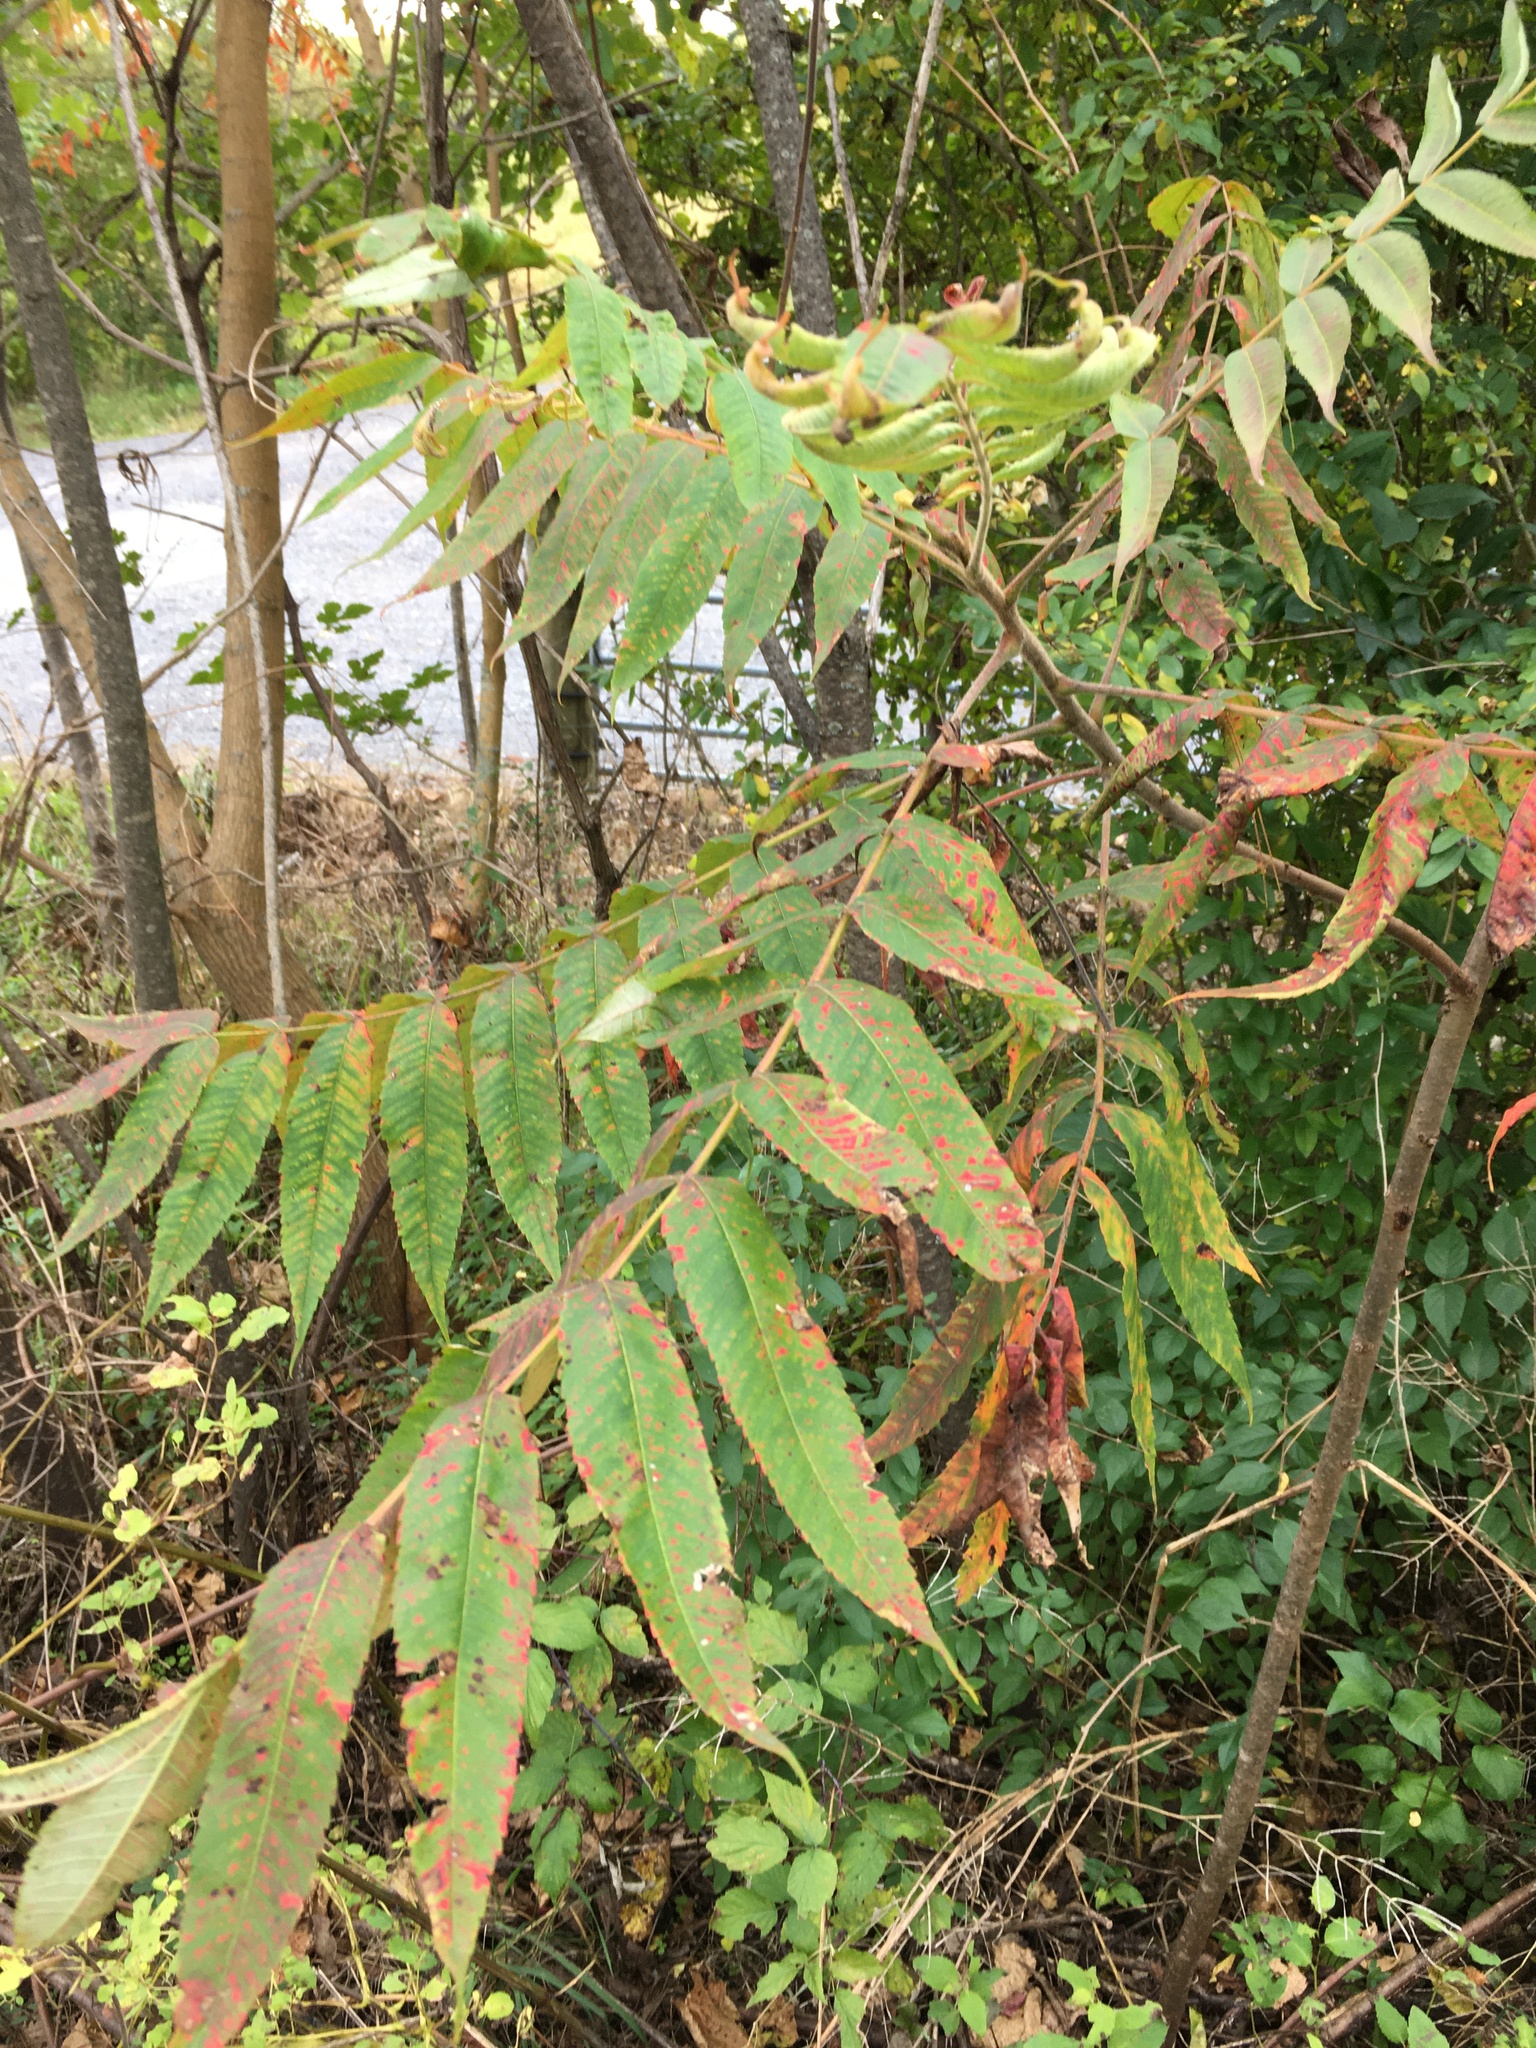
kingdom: Plantae
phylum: Tracheophyta
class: Magnoliopsida
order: Sapindales
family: Anacardiaceae
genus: Rhus
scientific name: Rhus typhina
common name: Staghorn sumac
